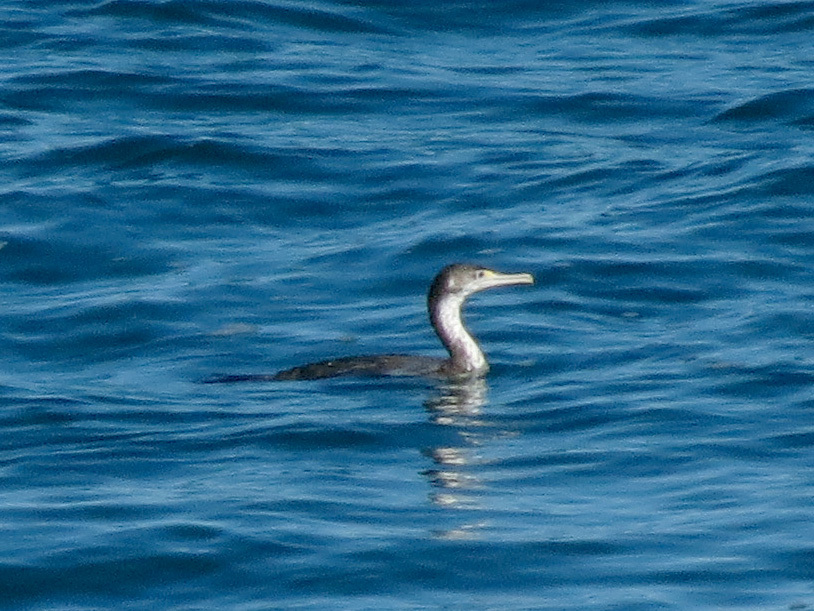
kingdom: Animalia
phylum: Chordata
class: Aves
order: Suliformes
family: Phalacrocoracidae
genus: Phalacrocorax
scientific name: Phalacrocorax varius
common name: Pied cormorant
